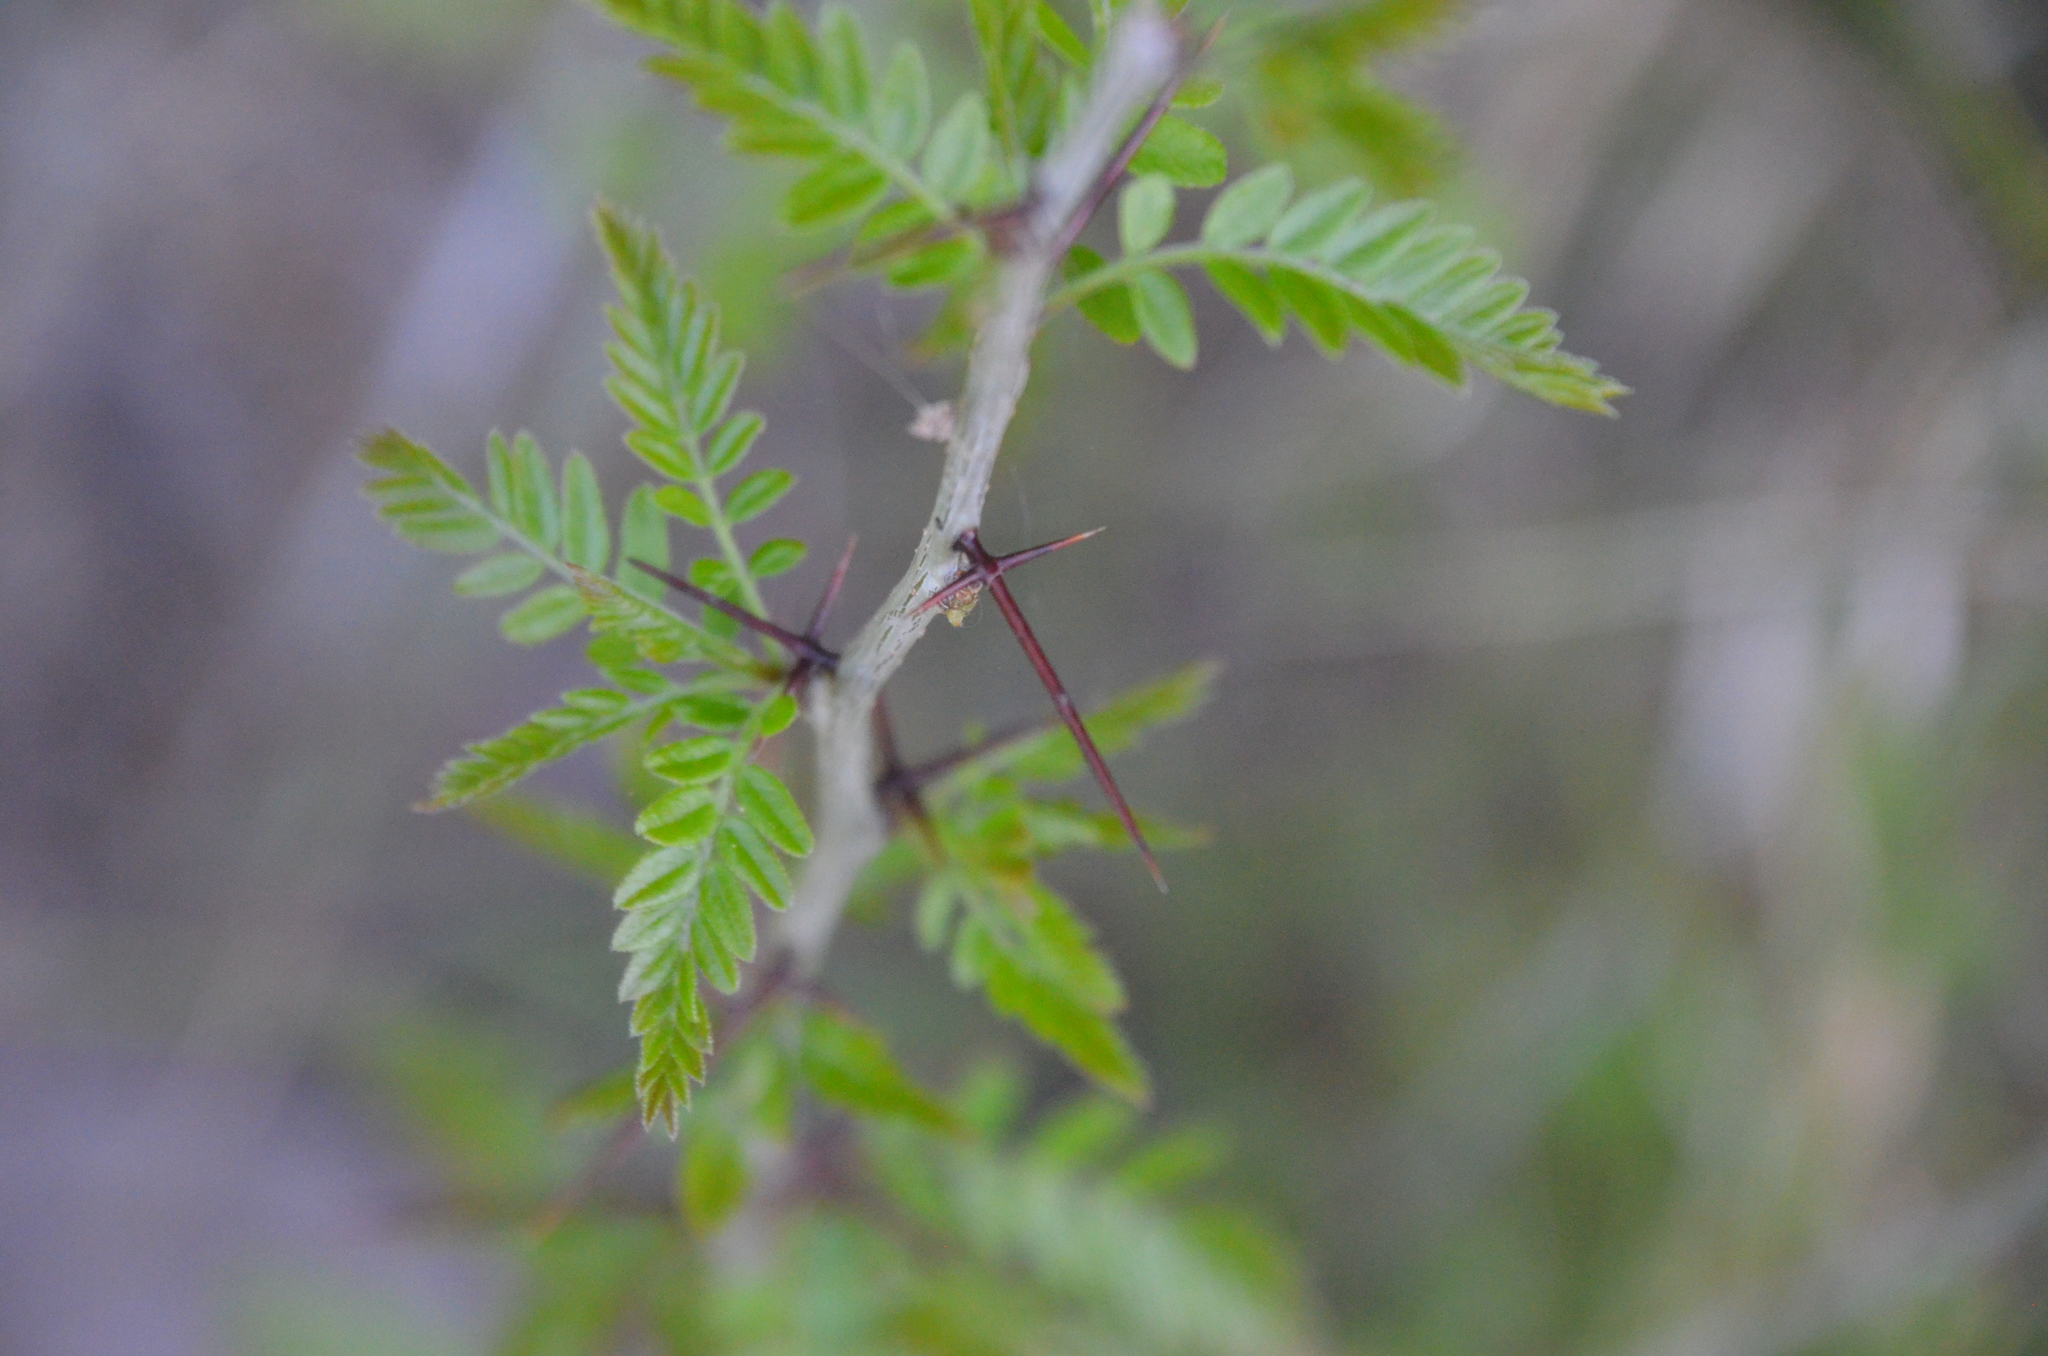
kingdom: Plantae
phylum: Tracheophyta
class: Magnoliopsida
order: Fabales
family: Fabaceae
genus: Gleditsia
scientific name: Gleditsia triacanthos
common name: Common honeylocust
